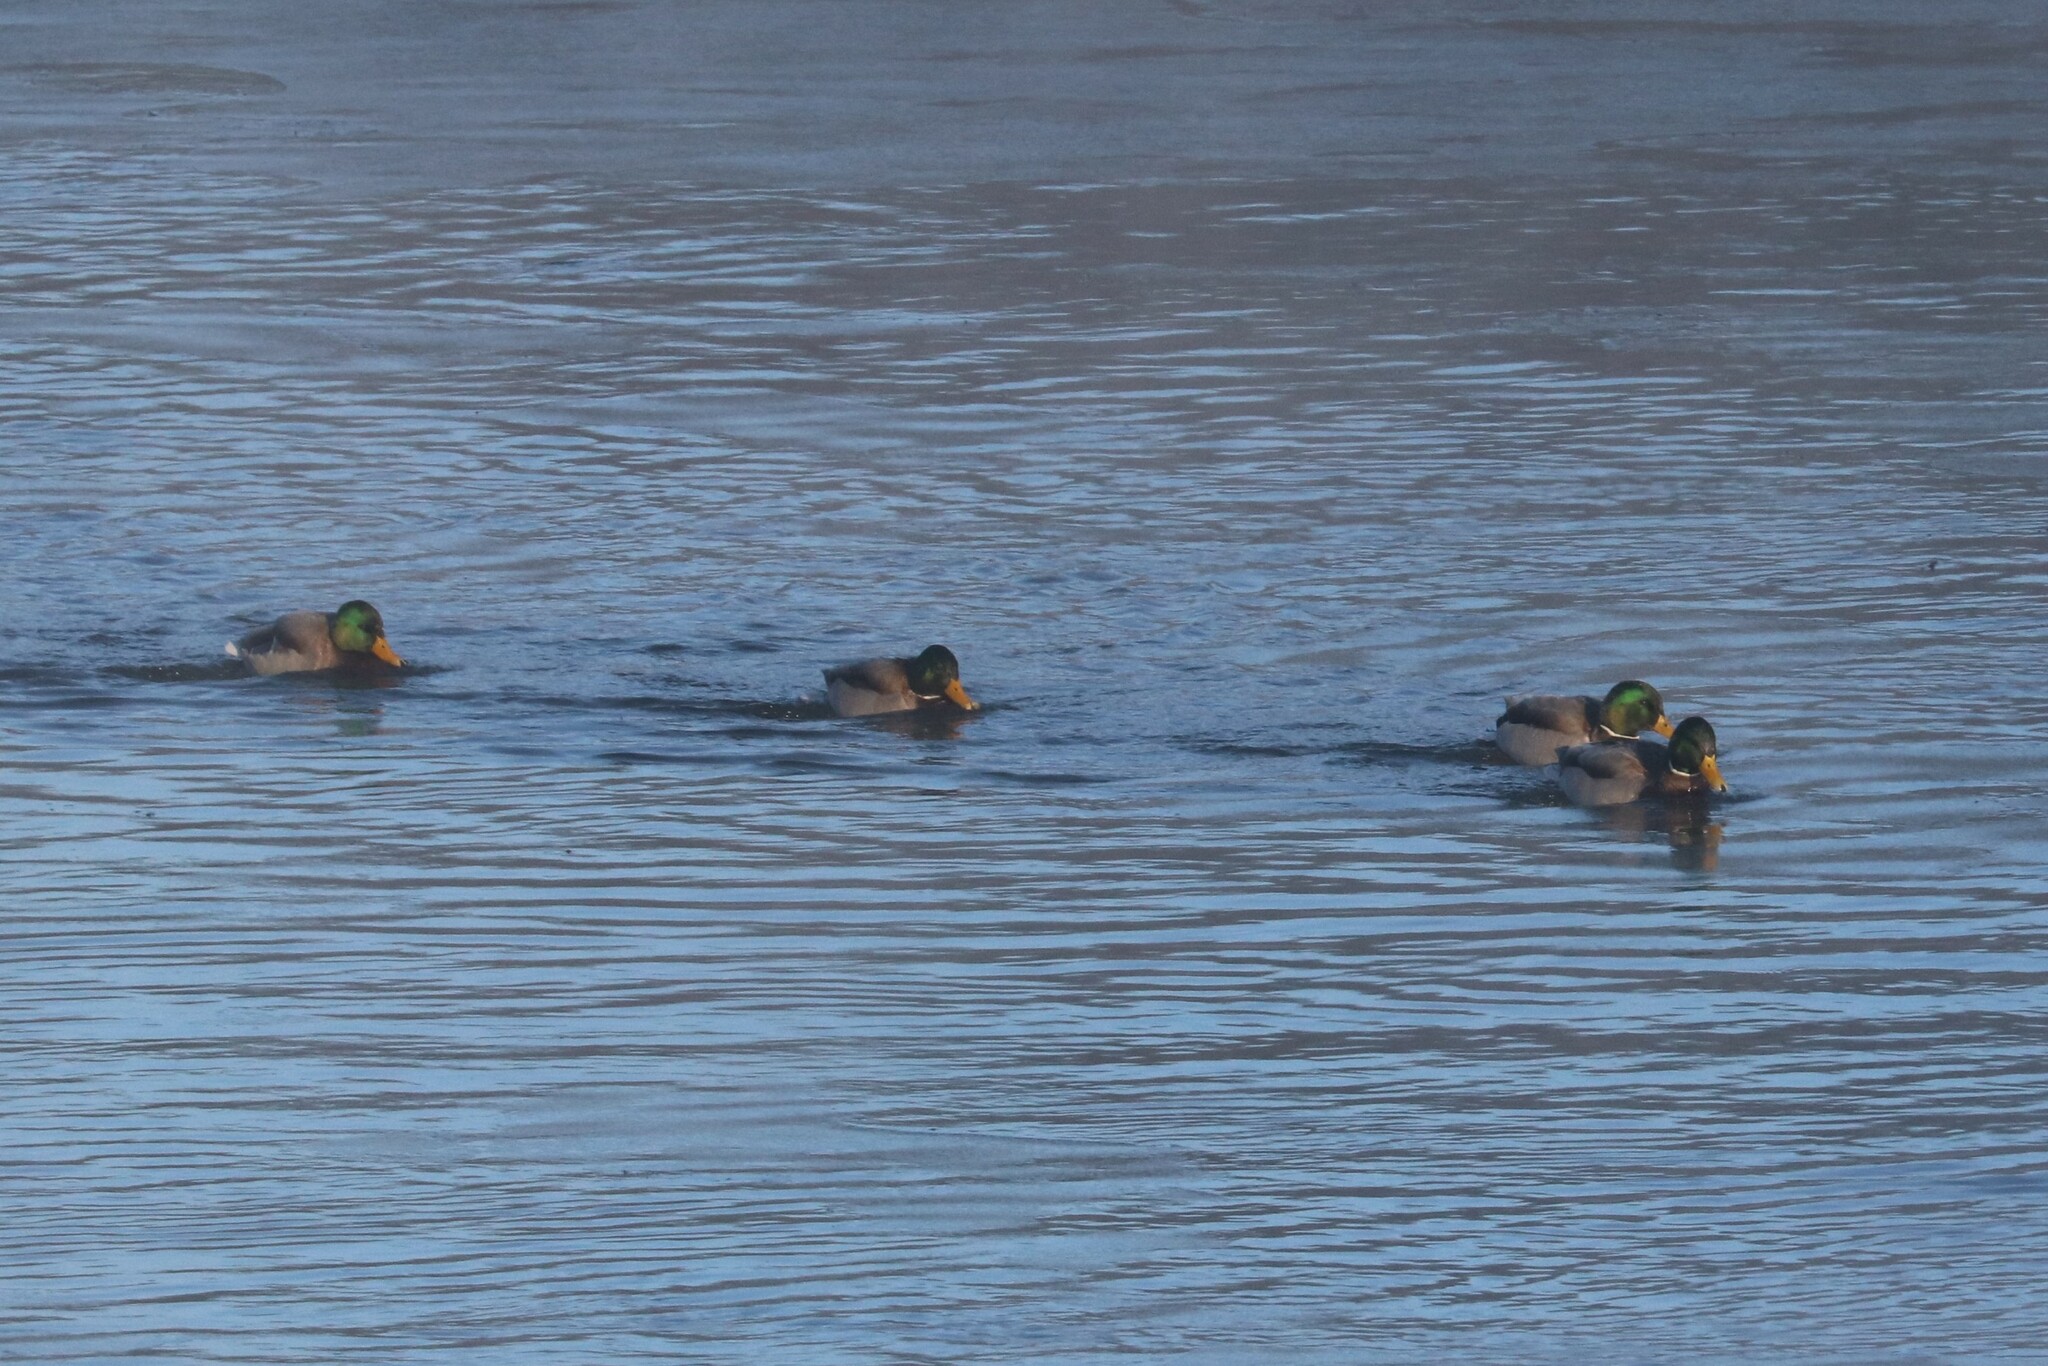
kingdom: Animalia
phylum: Chordata
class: Aves
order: Anseriformes
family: Anatidae
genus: Anas
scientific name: Anas platyrhynchos
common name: Mallard
